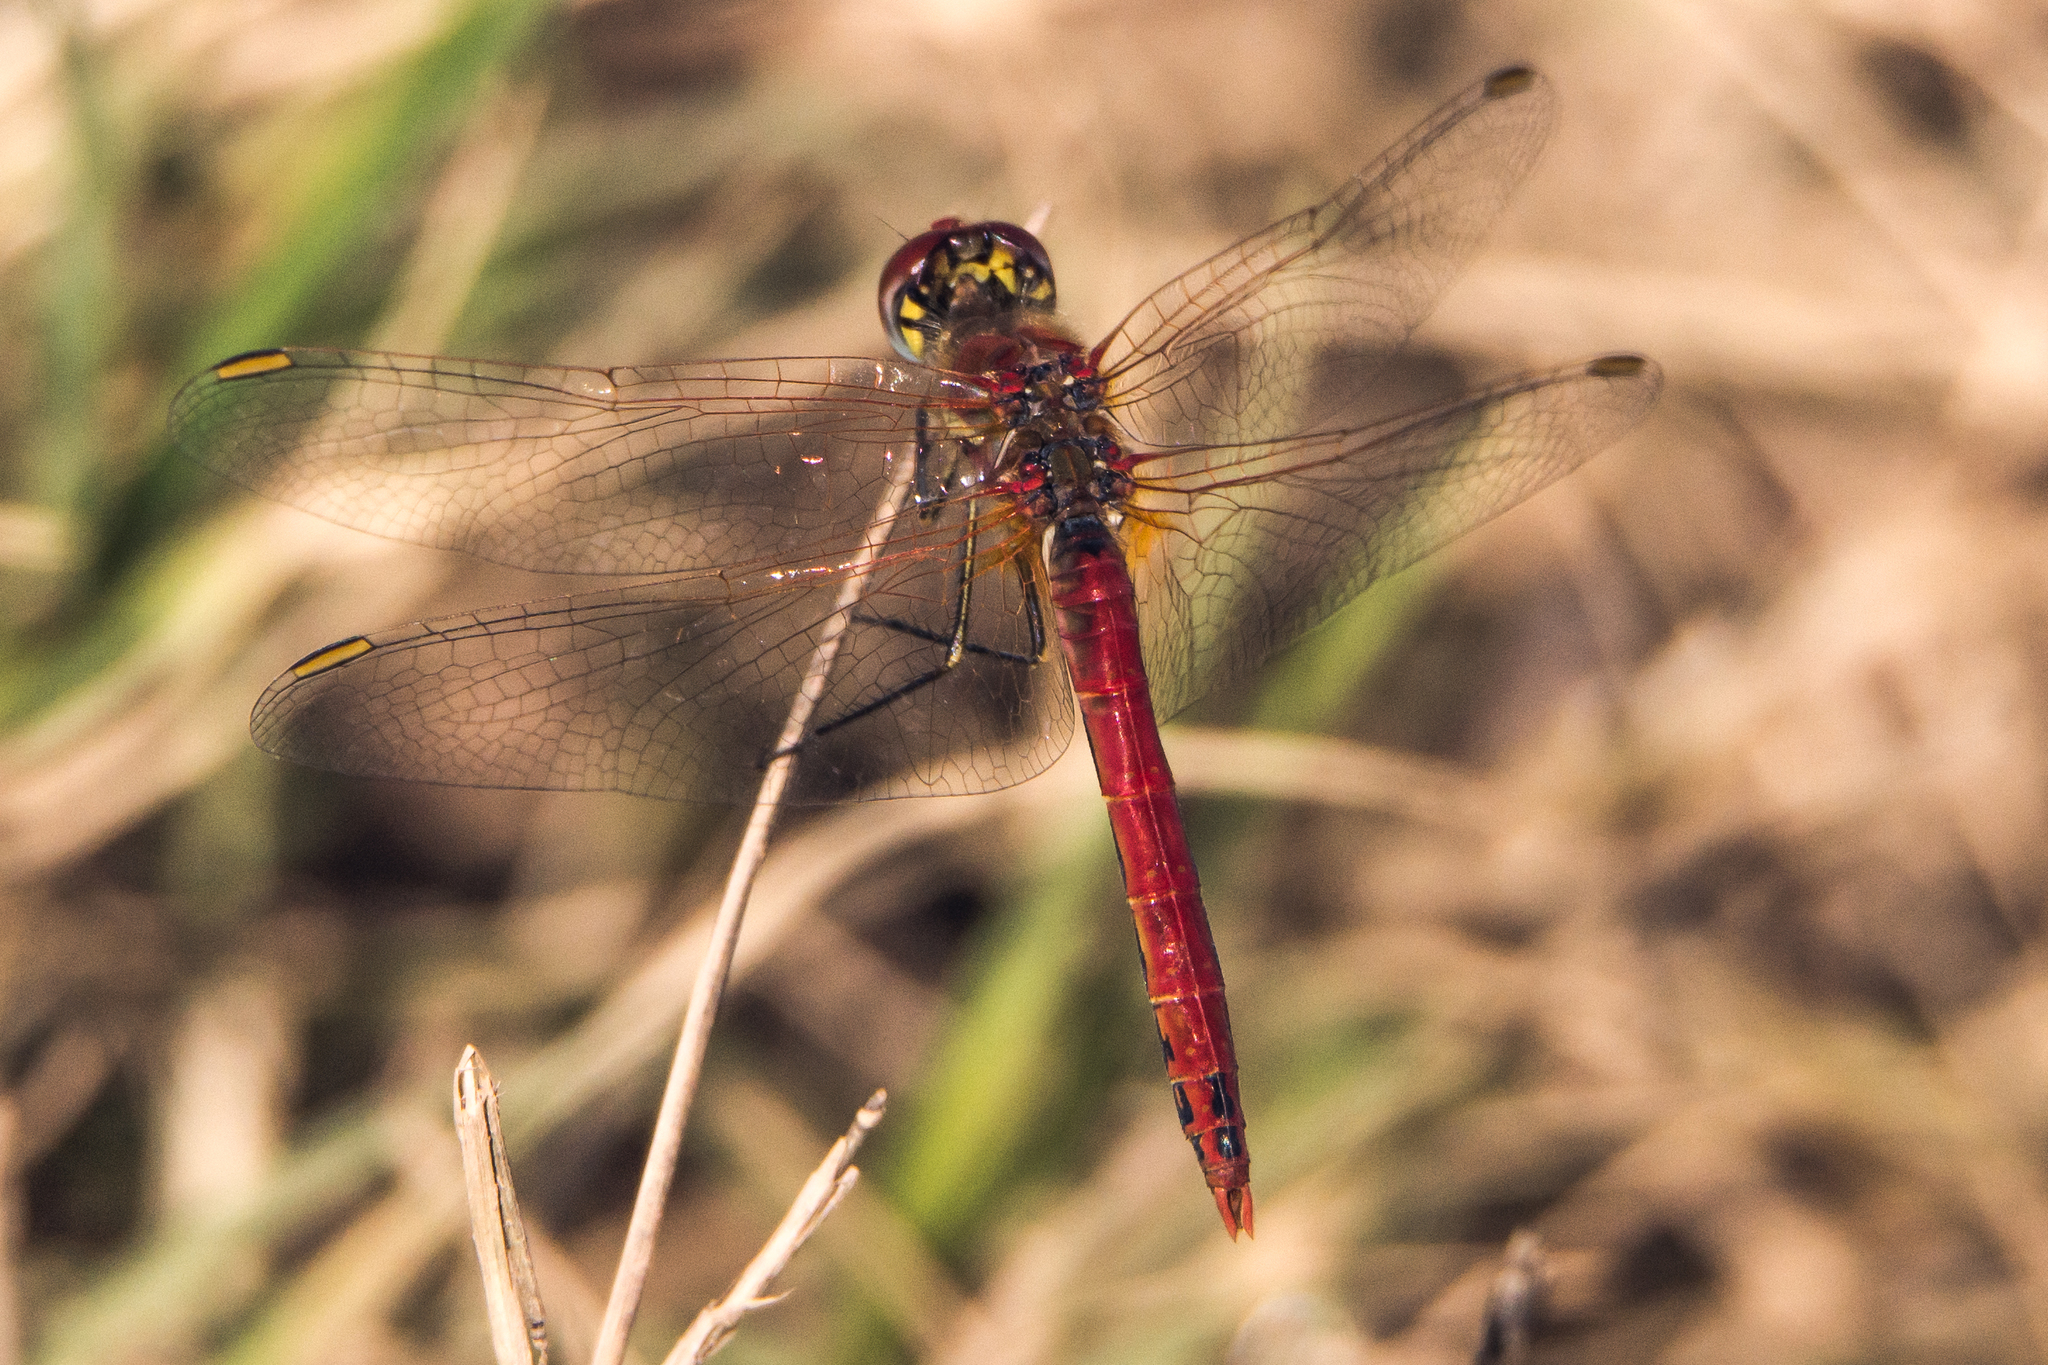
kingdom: Animalia
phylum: Arthropoda
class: Insecta
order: Odonata
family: Libellulidae
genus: Sympetrum
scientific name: Sympetrum fonscolombii
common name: Red-veined darter
